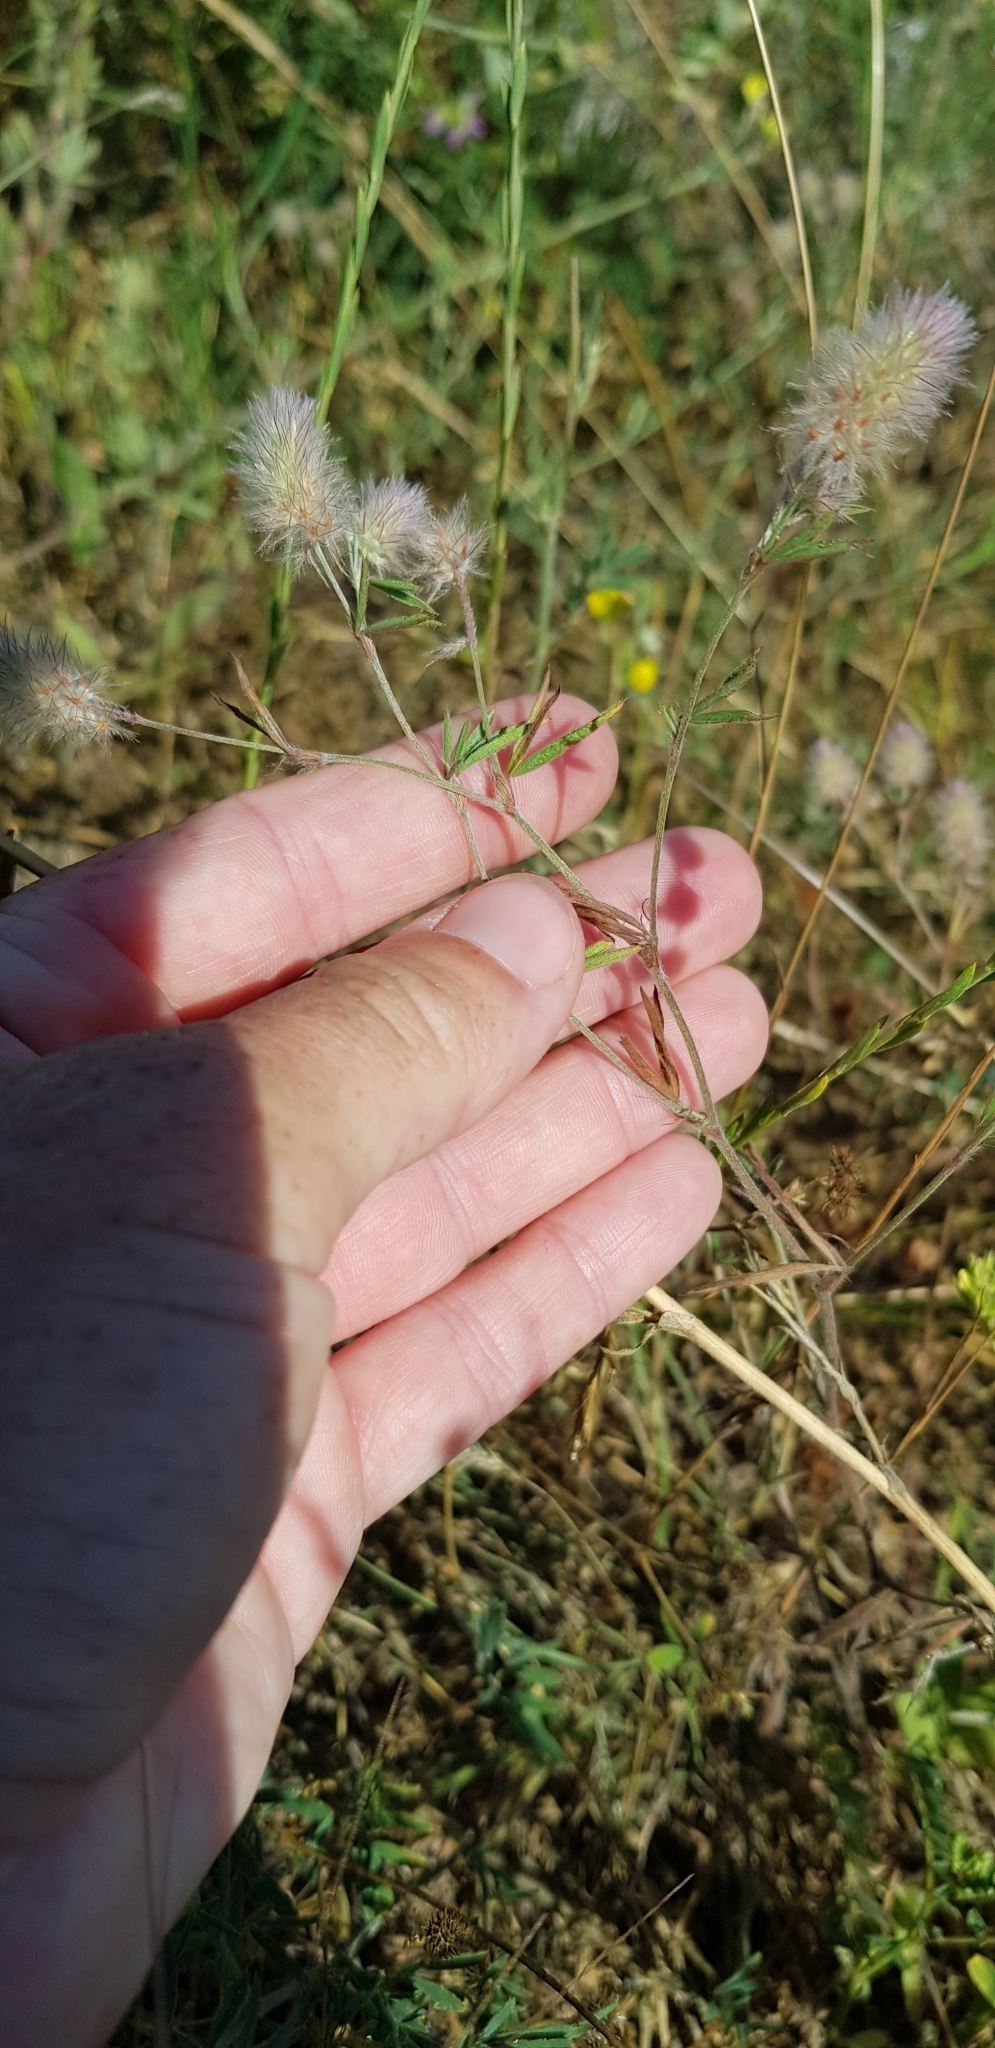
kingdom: Plantae
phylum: Tracheophyta
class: Magnoliopsida
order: Fabales
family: Fabaceae
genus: Trifolium
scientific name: Trifolium arvense
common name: Hare's-foot clover
